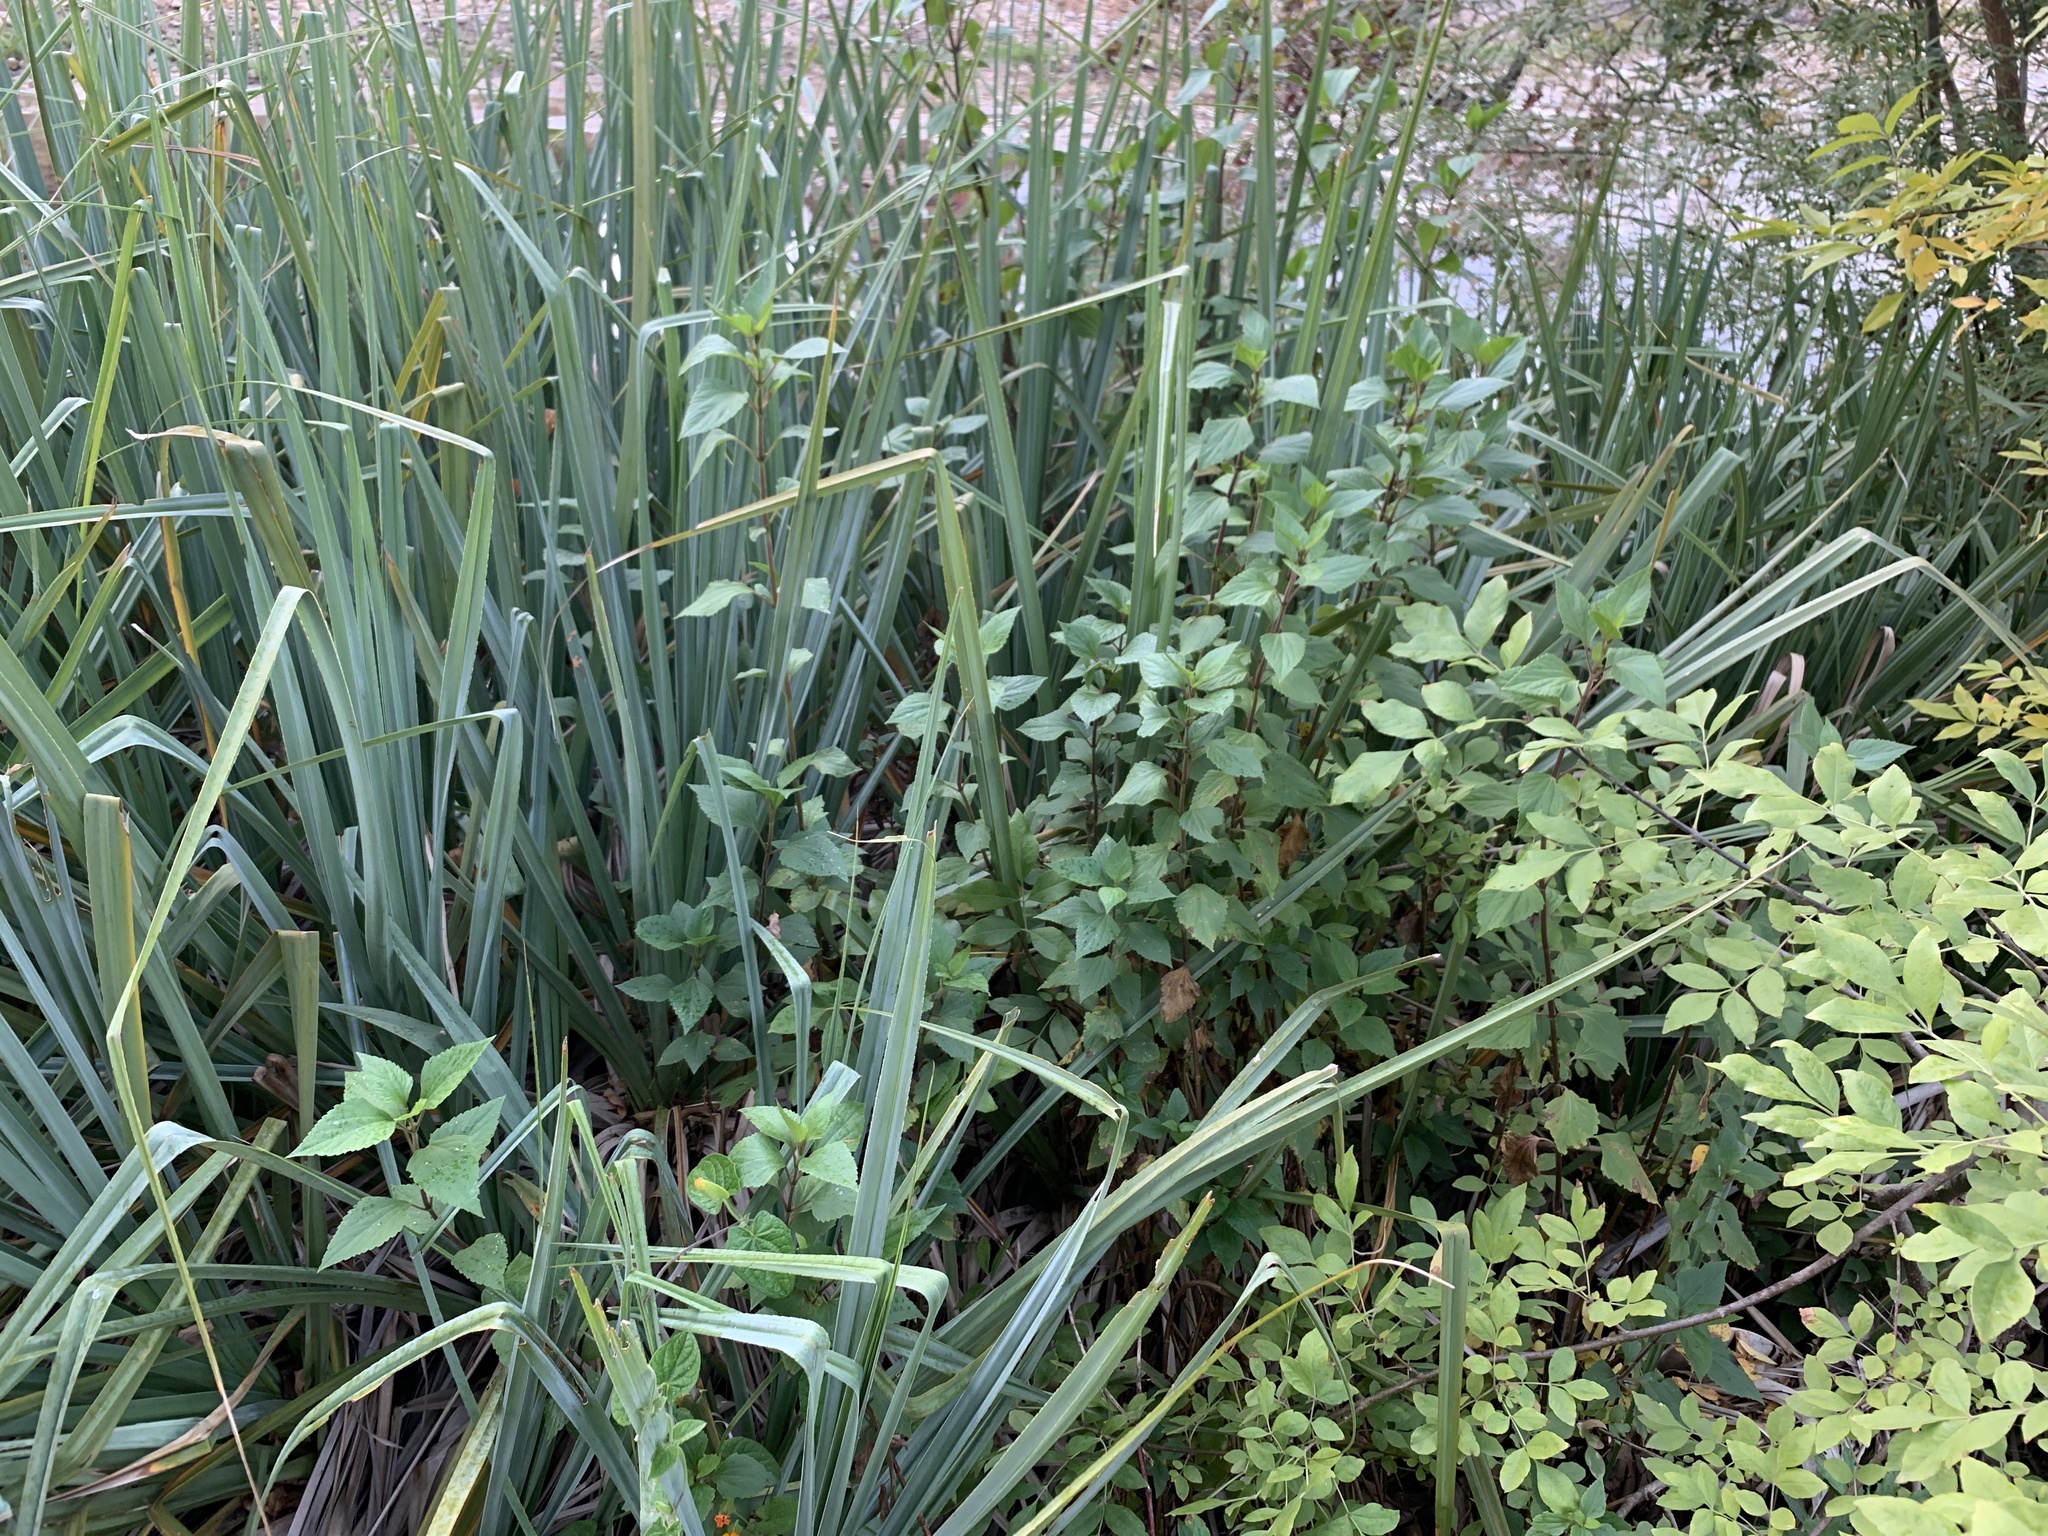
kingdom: Plantae
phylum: Tracheophyta
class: Magnoliopsida
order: Asterales
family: Asteraceae
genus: Ageratina
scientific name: Ageratina adenophora
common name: Sticky snakeroot
